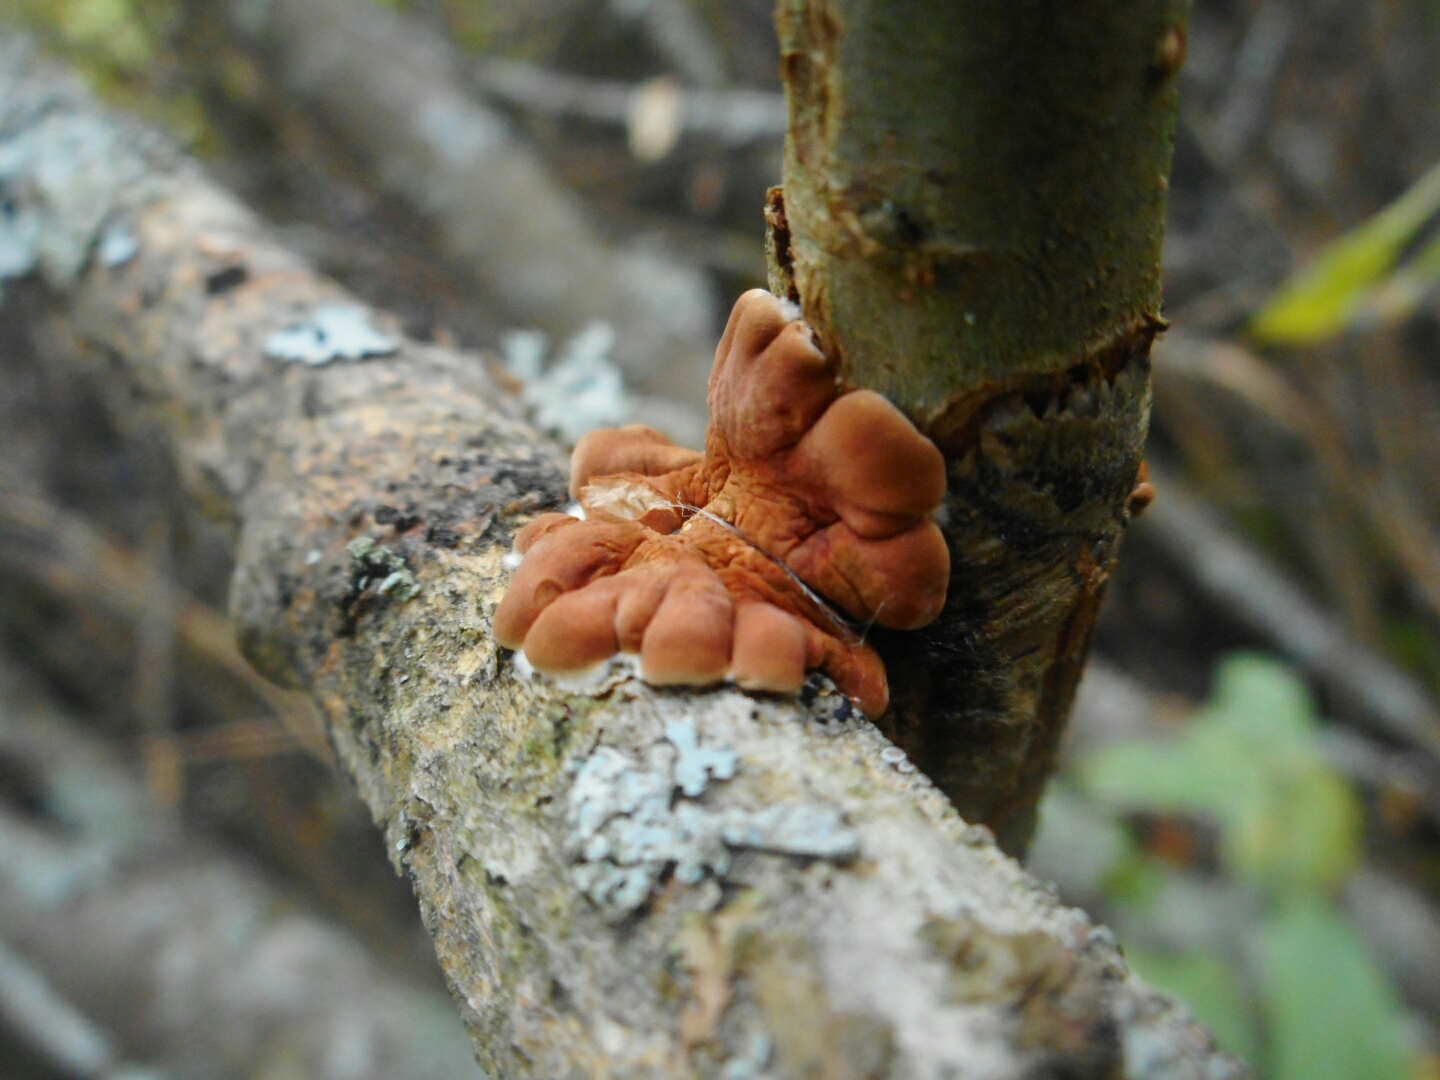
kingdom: Fungi
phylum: Ascomycota
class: Sordariomycetes
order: Hypocreales
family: Hypocreaceae
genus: Hypocreopsis
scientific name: Hypocreopsis lichenoides
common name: Willow gloves
